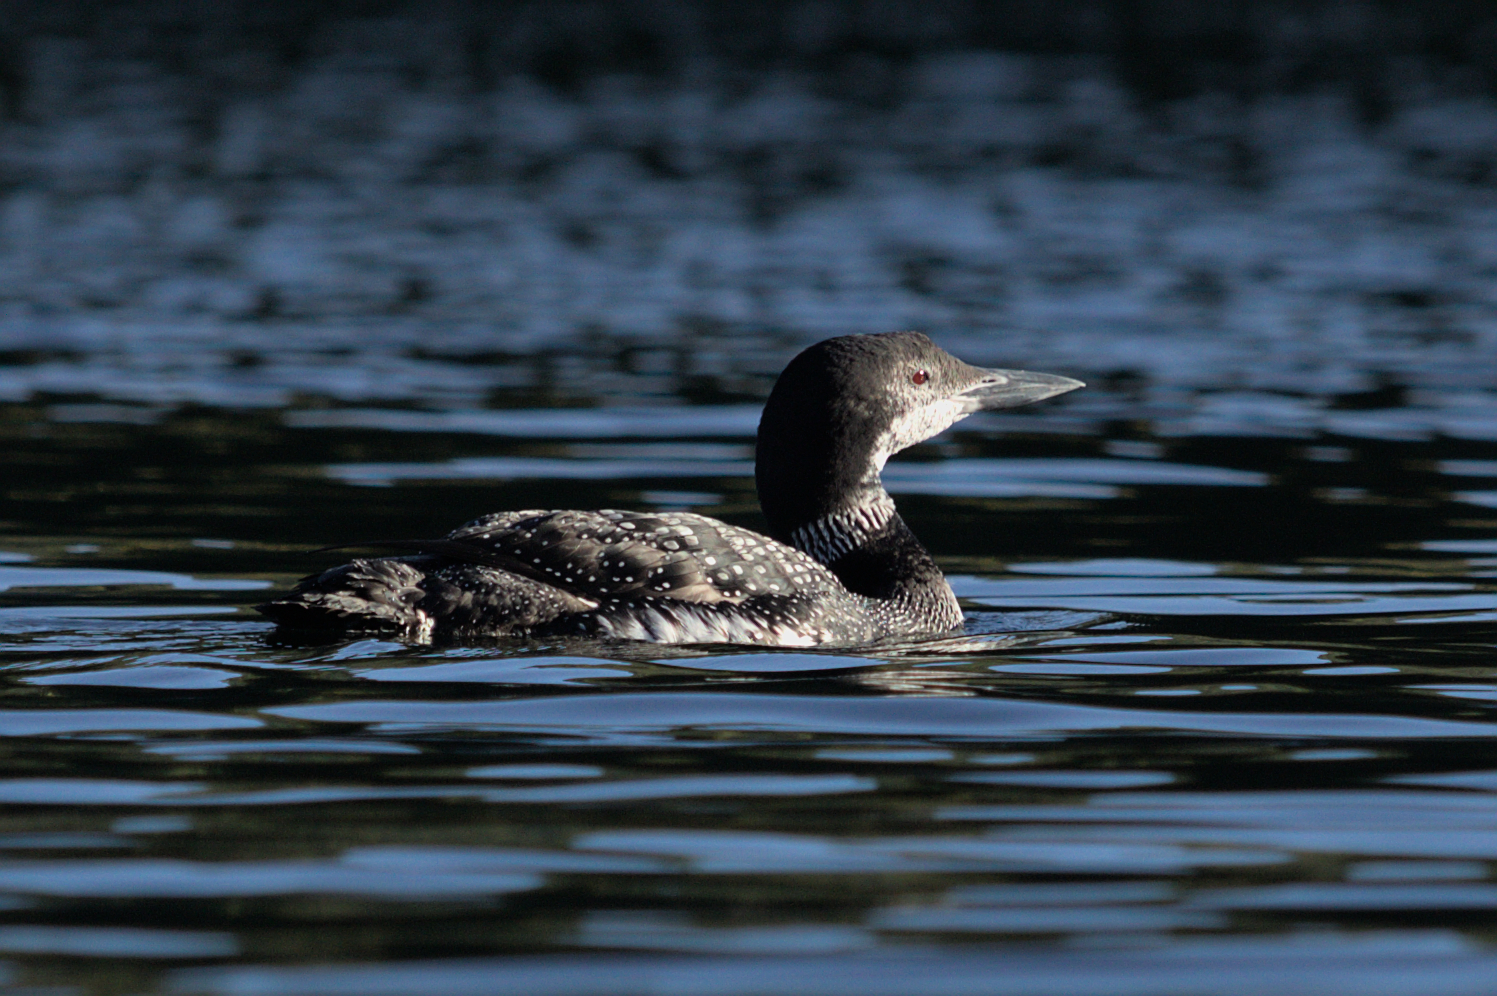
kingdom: Animalia
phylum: Chordata
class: Aves
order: Gaviiformes
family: Gaviidae
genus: Gavia
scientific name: Gavia immer
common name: Common loon
